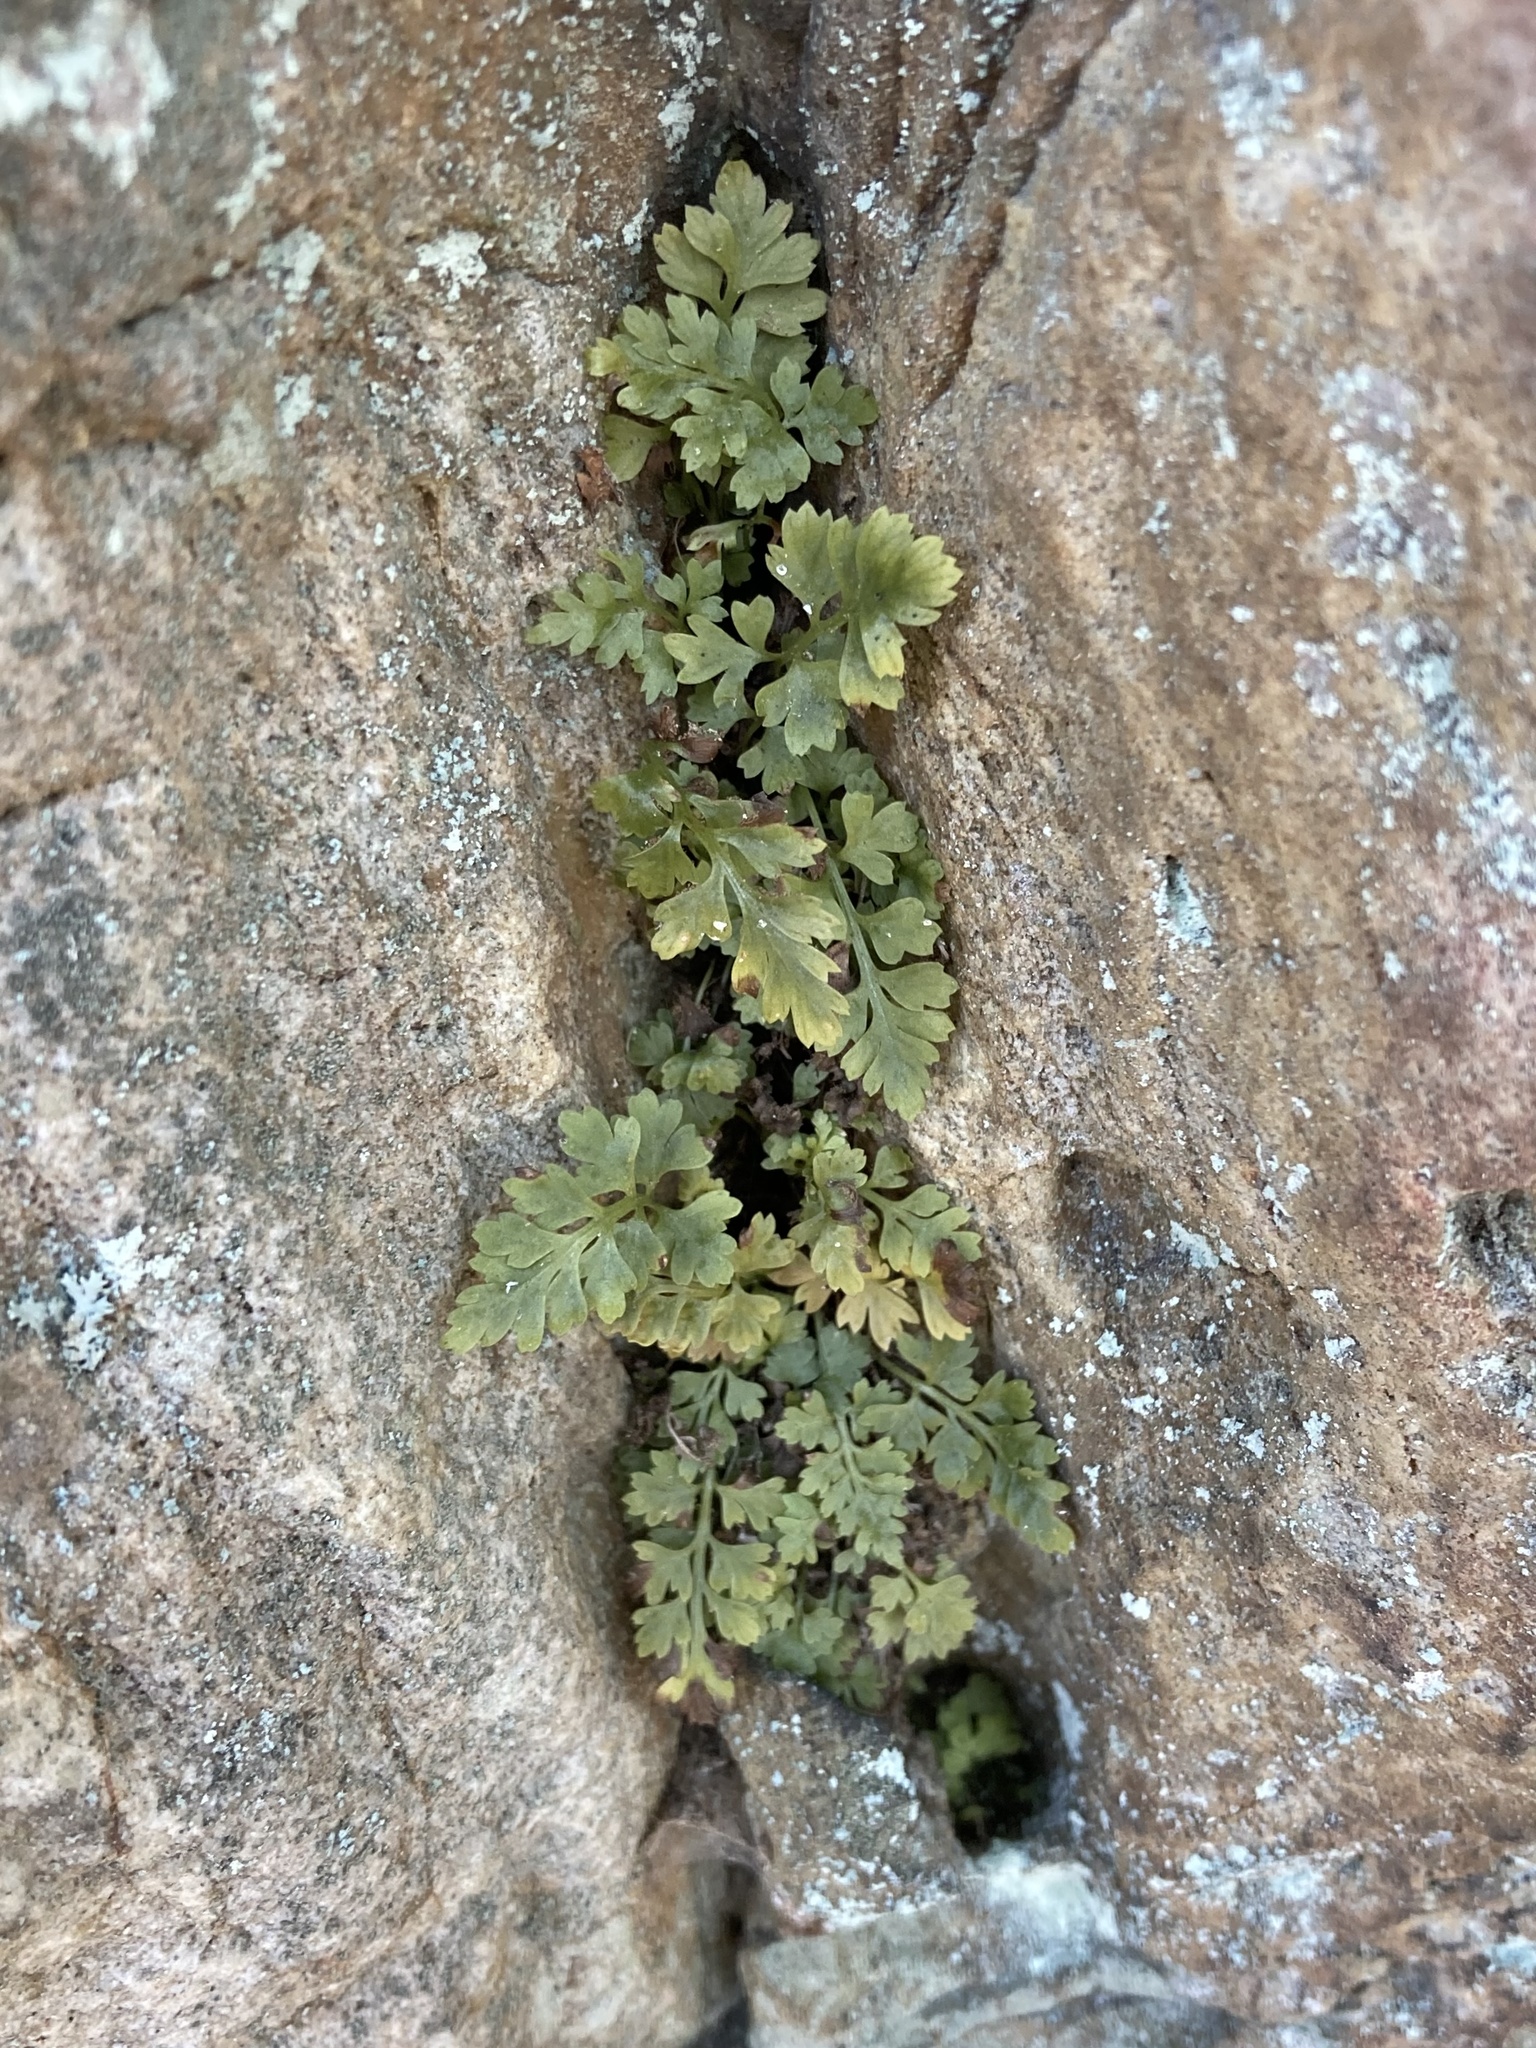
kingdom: Plantae
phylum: Tracheophyta
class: Polypodiopsida
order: Polypodiales
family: Aspleniaceae
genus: Asplenium
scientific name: Asplenium montanum
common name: Mountain spleenwort
